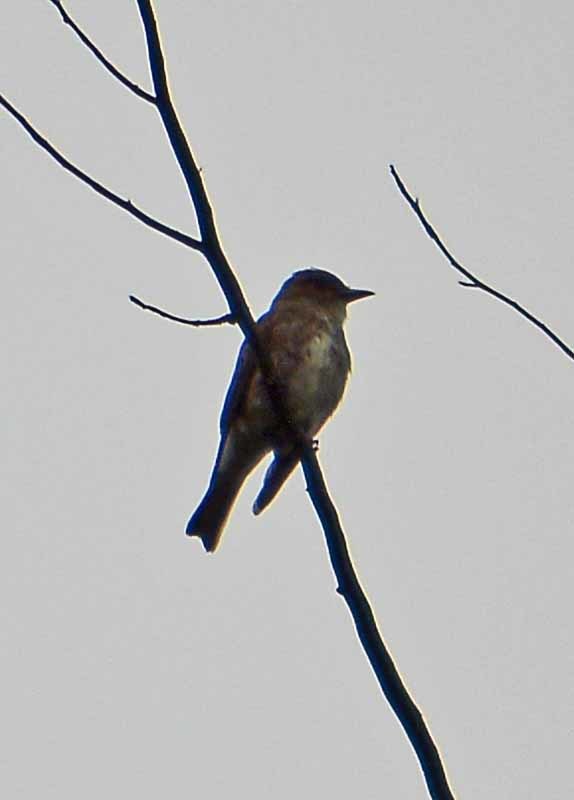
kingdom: Animalia
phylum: Chordata
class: Aves
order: Passeriformes
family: Tyrannidae
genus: Contopus
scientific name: Contopus cooperi
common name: Olive-sided flycatcher
